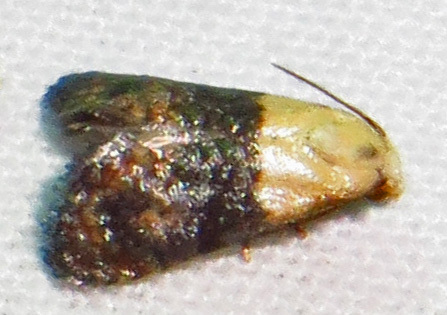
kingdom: Animalia
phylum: Arthropoda
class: Insecta
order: Lepidoptera
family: Tortricidae
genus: Eugnosta
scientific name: Eugnosta erigeronana
